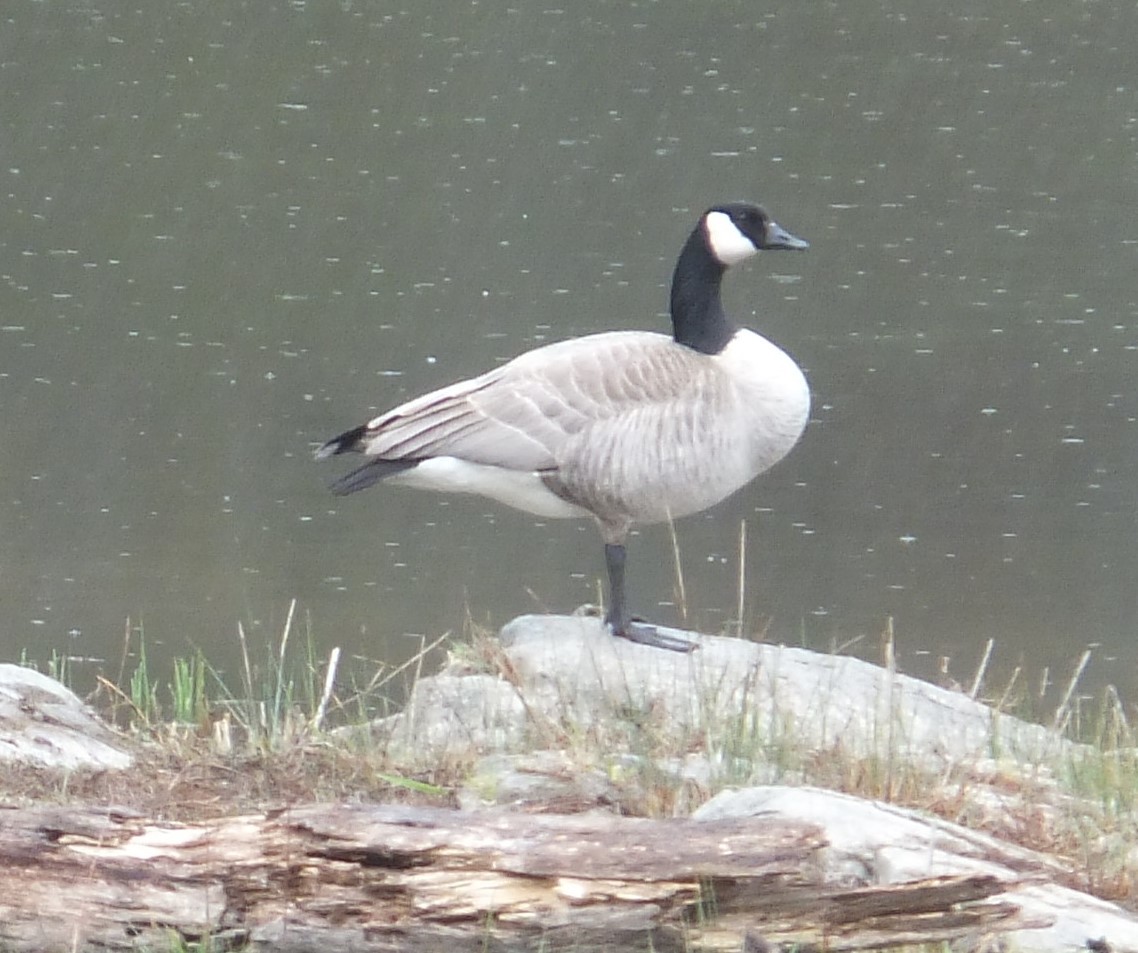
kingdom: Animalia
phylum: Chordata
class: Aves
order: Anseriformes
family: Anatidae
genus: Branta
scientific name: Branta canadensis
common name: Canada goose
